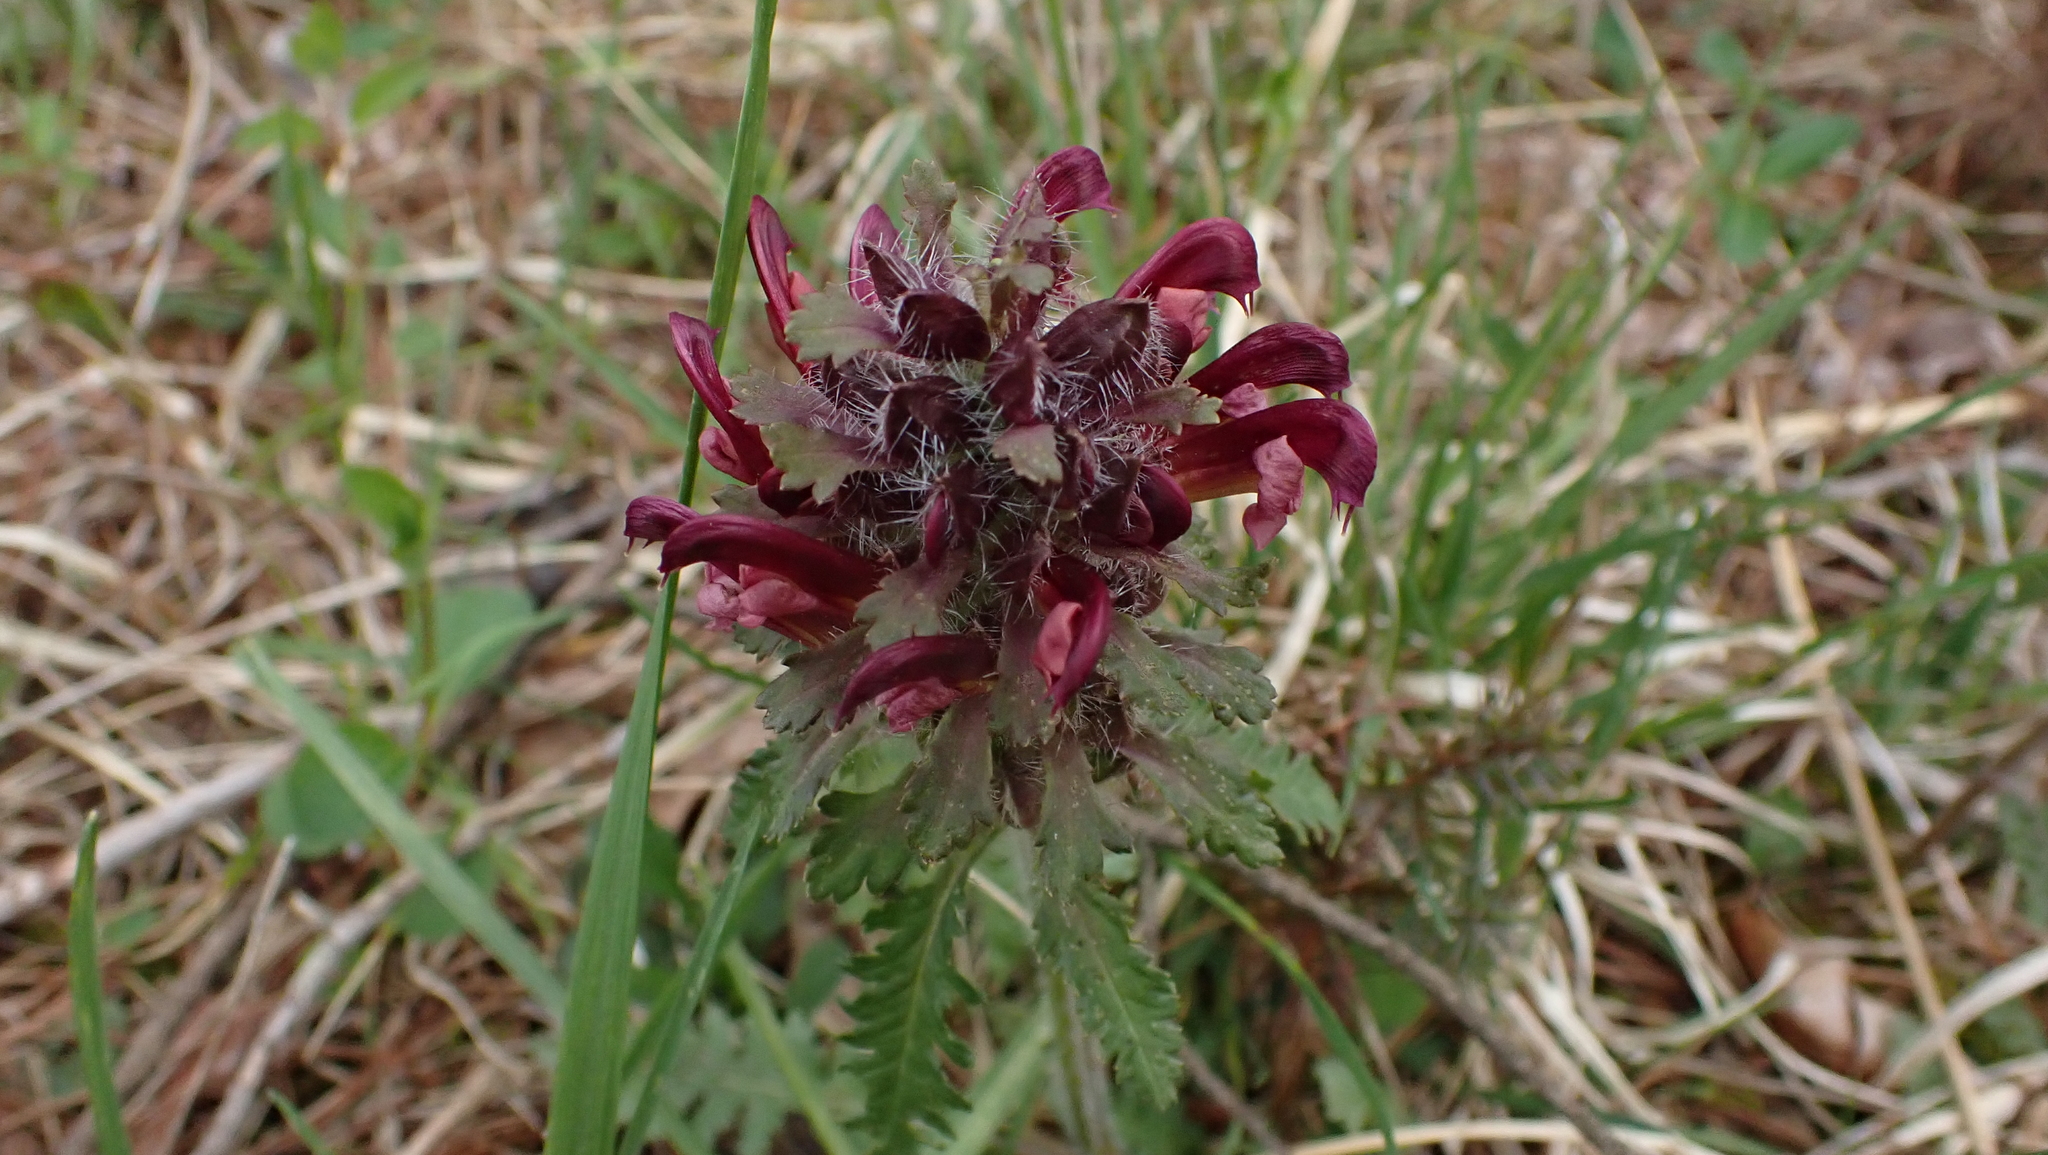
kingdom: Plantae
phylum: Tracheophyta
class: Magnoliopsida
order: Lamiales
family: Orobanchaceae
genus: Pedicularis
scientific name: Pedicularis canadensis
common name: Early lousewort
